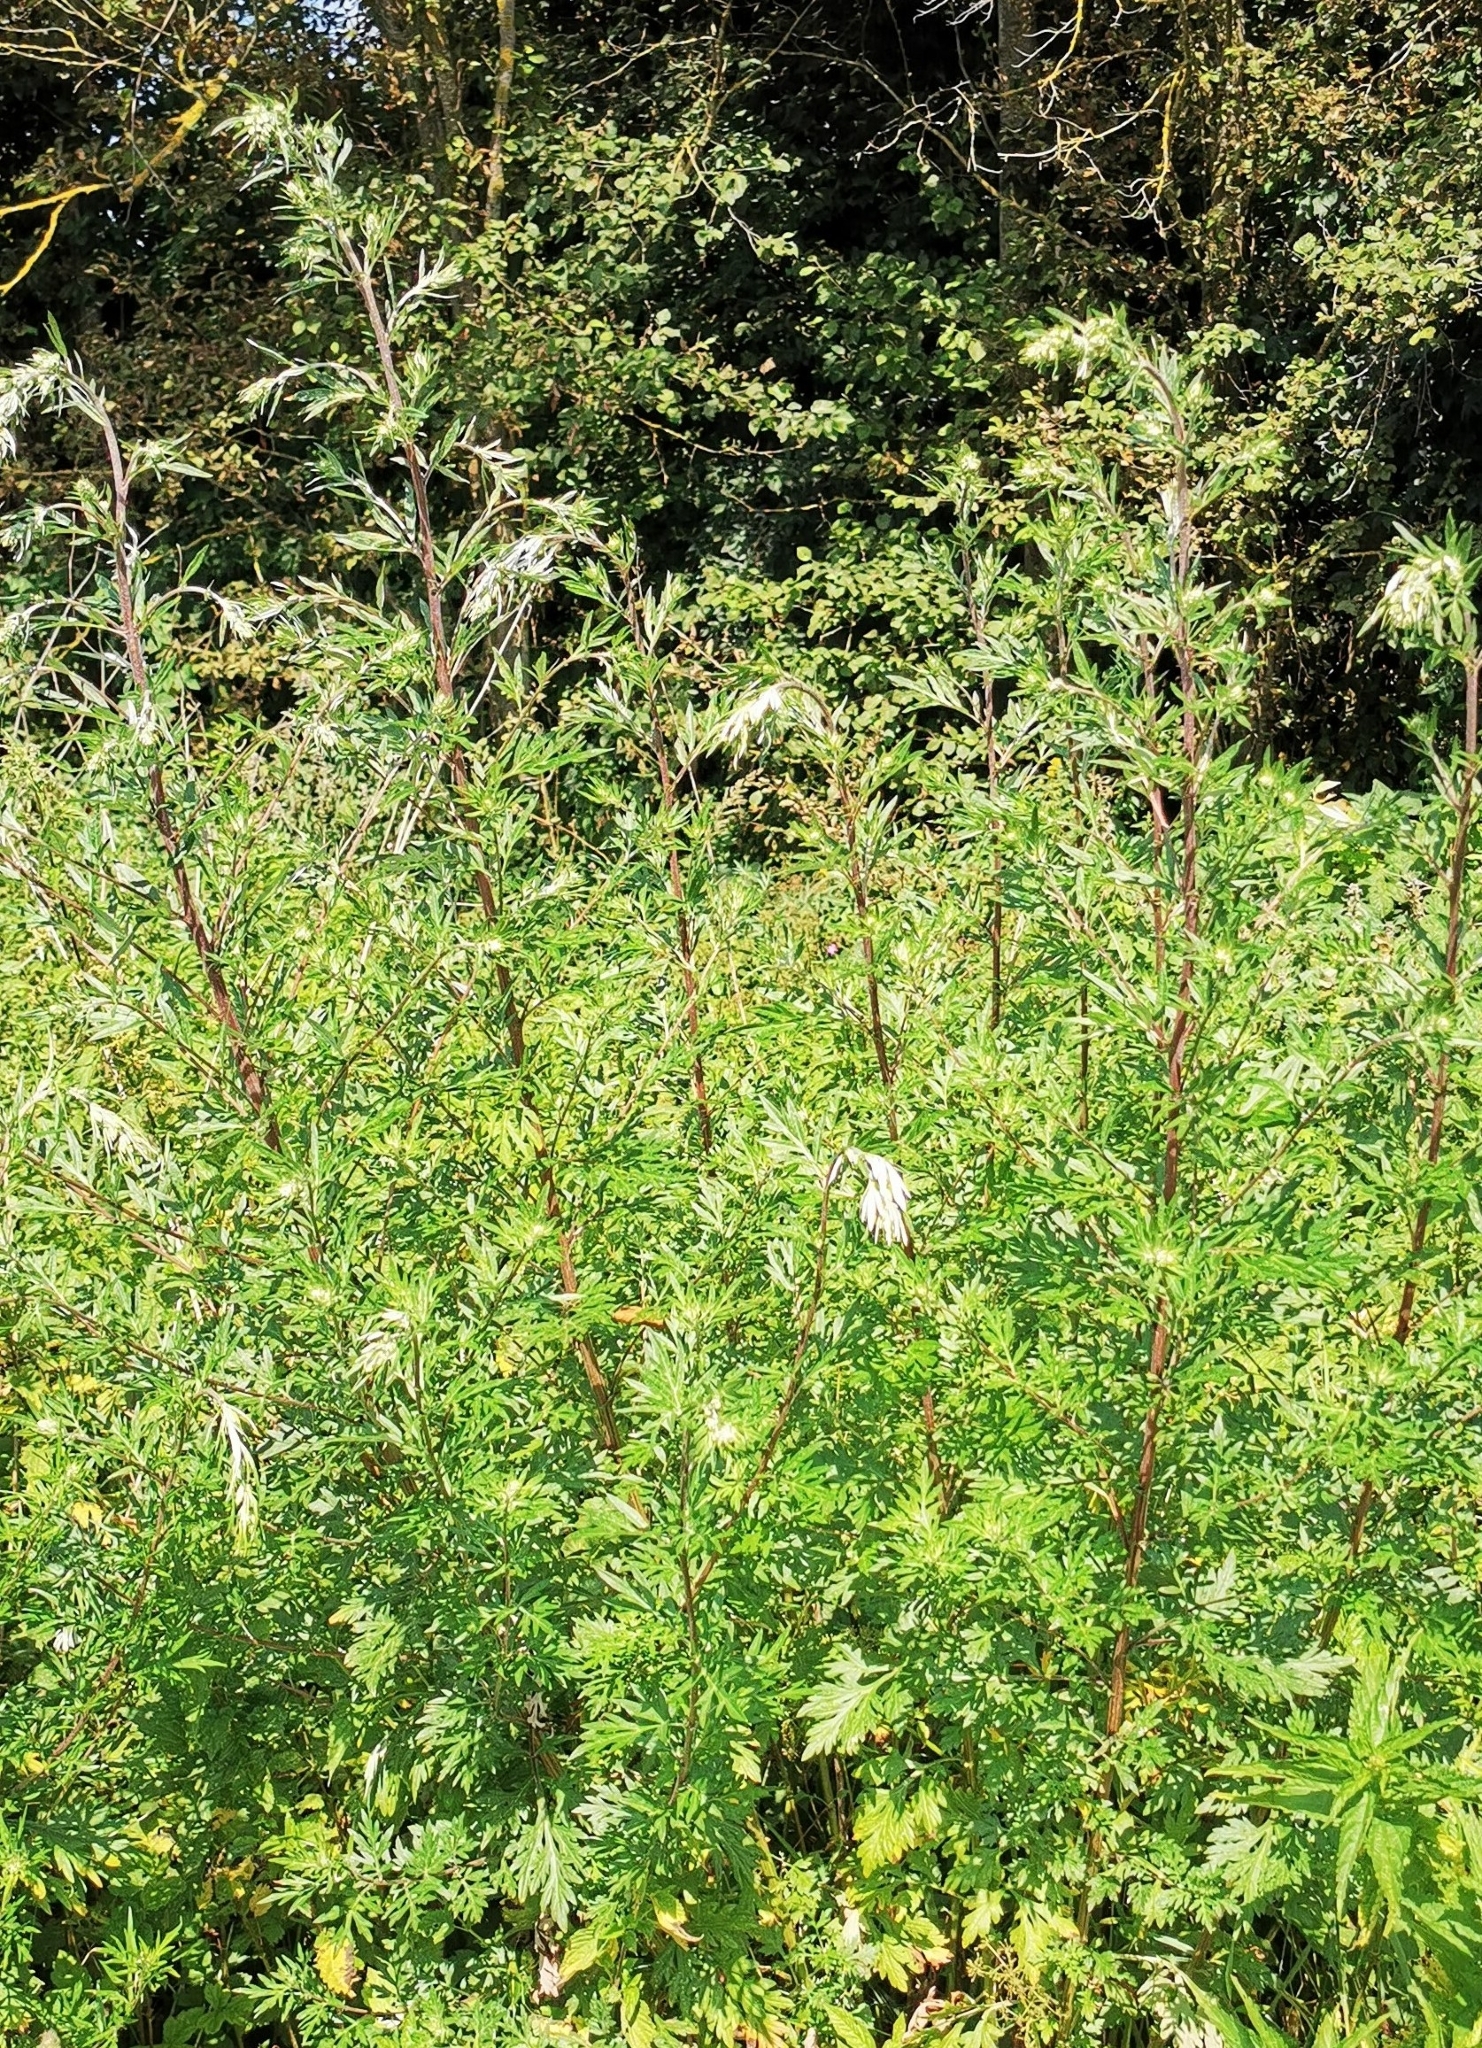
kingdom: Plantae
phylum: Tracheophyta
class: Magnoliopsida
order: Asterales
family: Asteraceae
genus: Artemisia
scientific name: Artemisia vulgaris
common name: Mugwort
